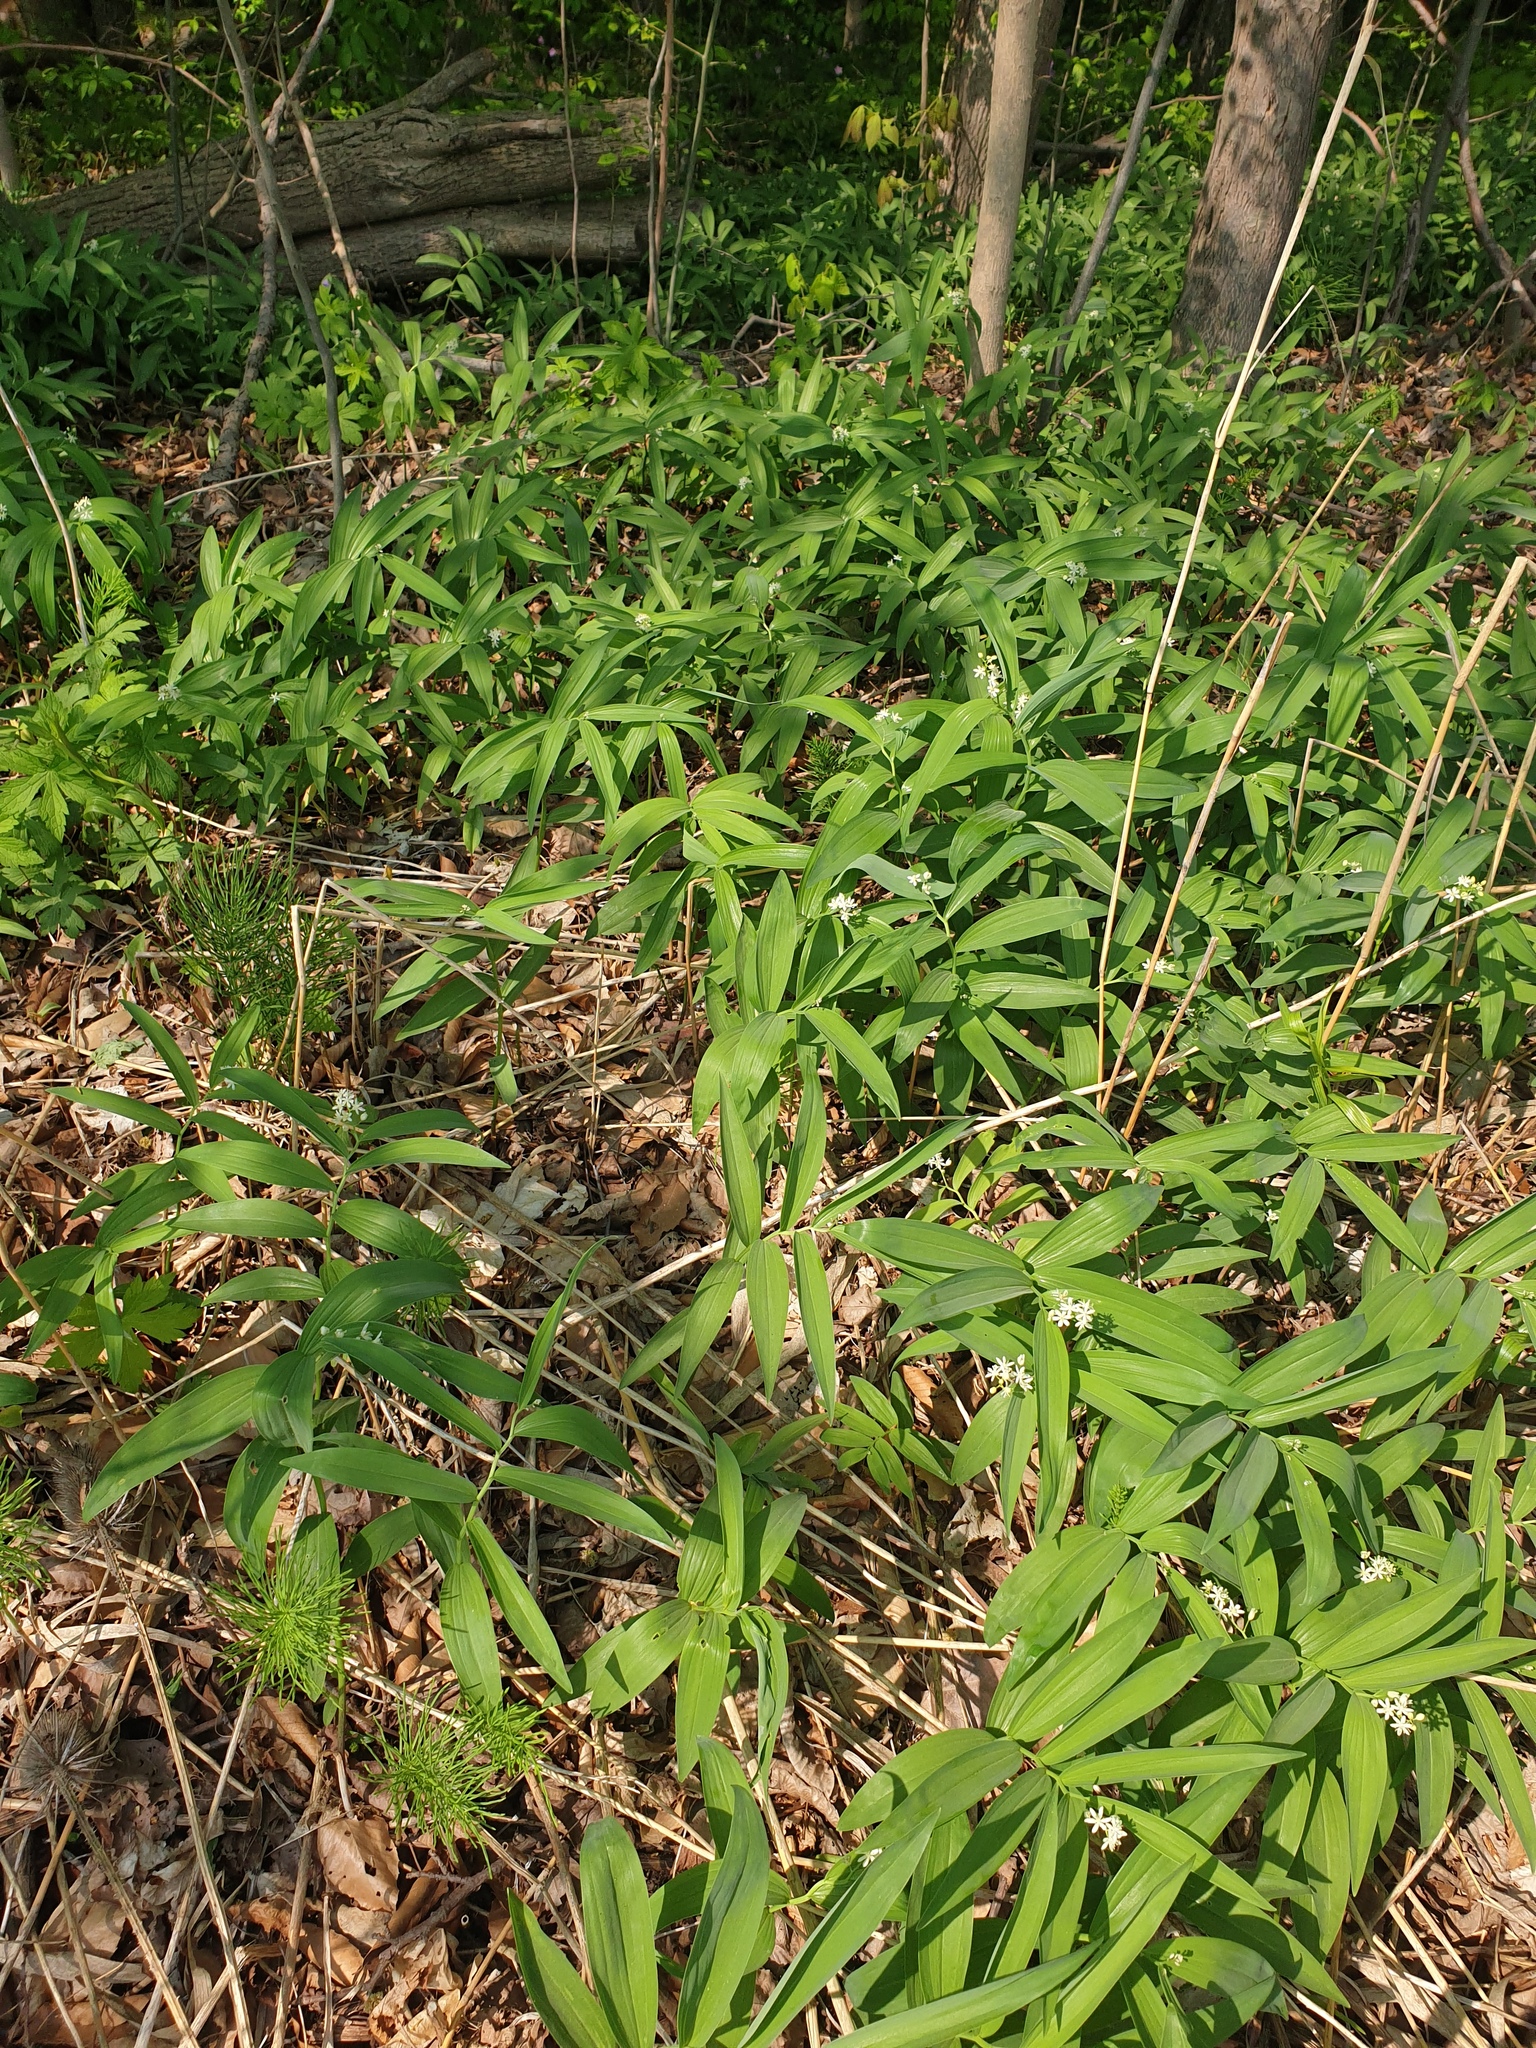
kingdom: Plantae
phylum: Tracheophyta
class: Liliopsida
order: Asparagales
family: Asparagaceae
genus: Maianthemum
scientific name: Maianthemum stellatum
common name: Little false solomon's seal
